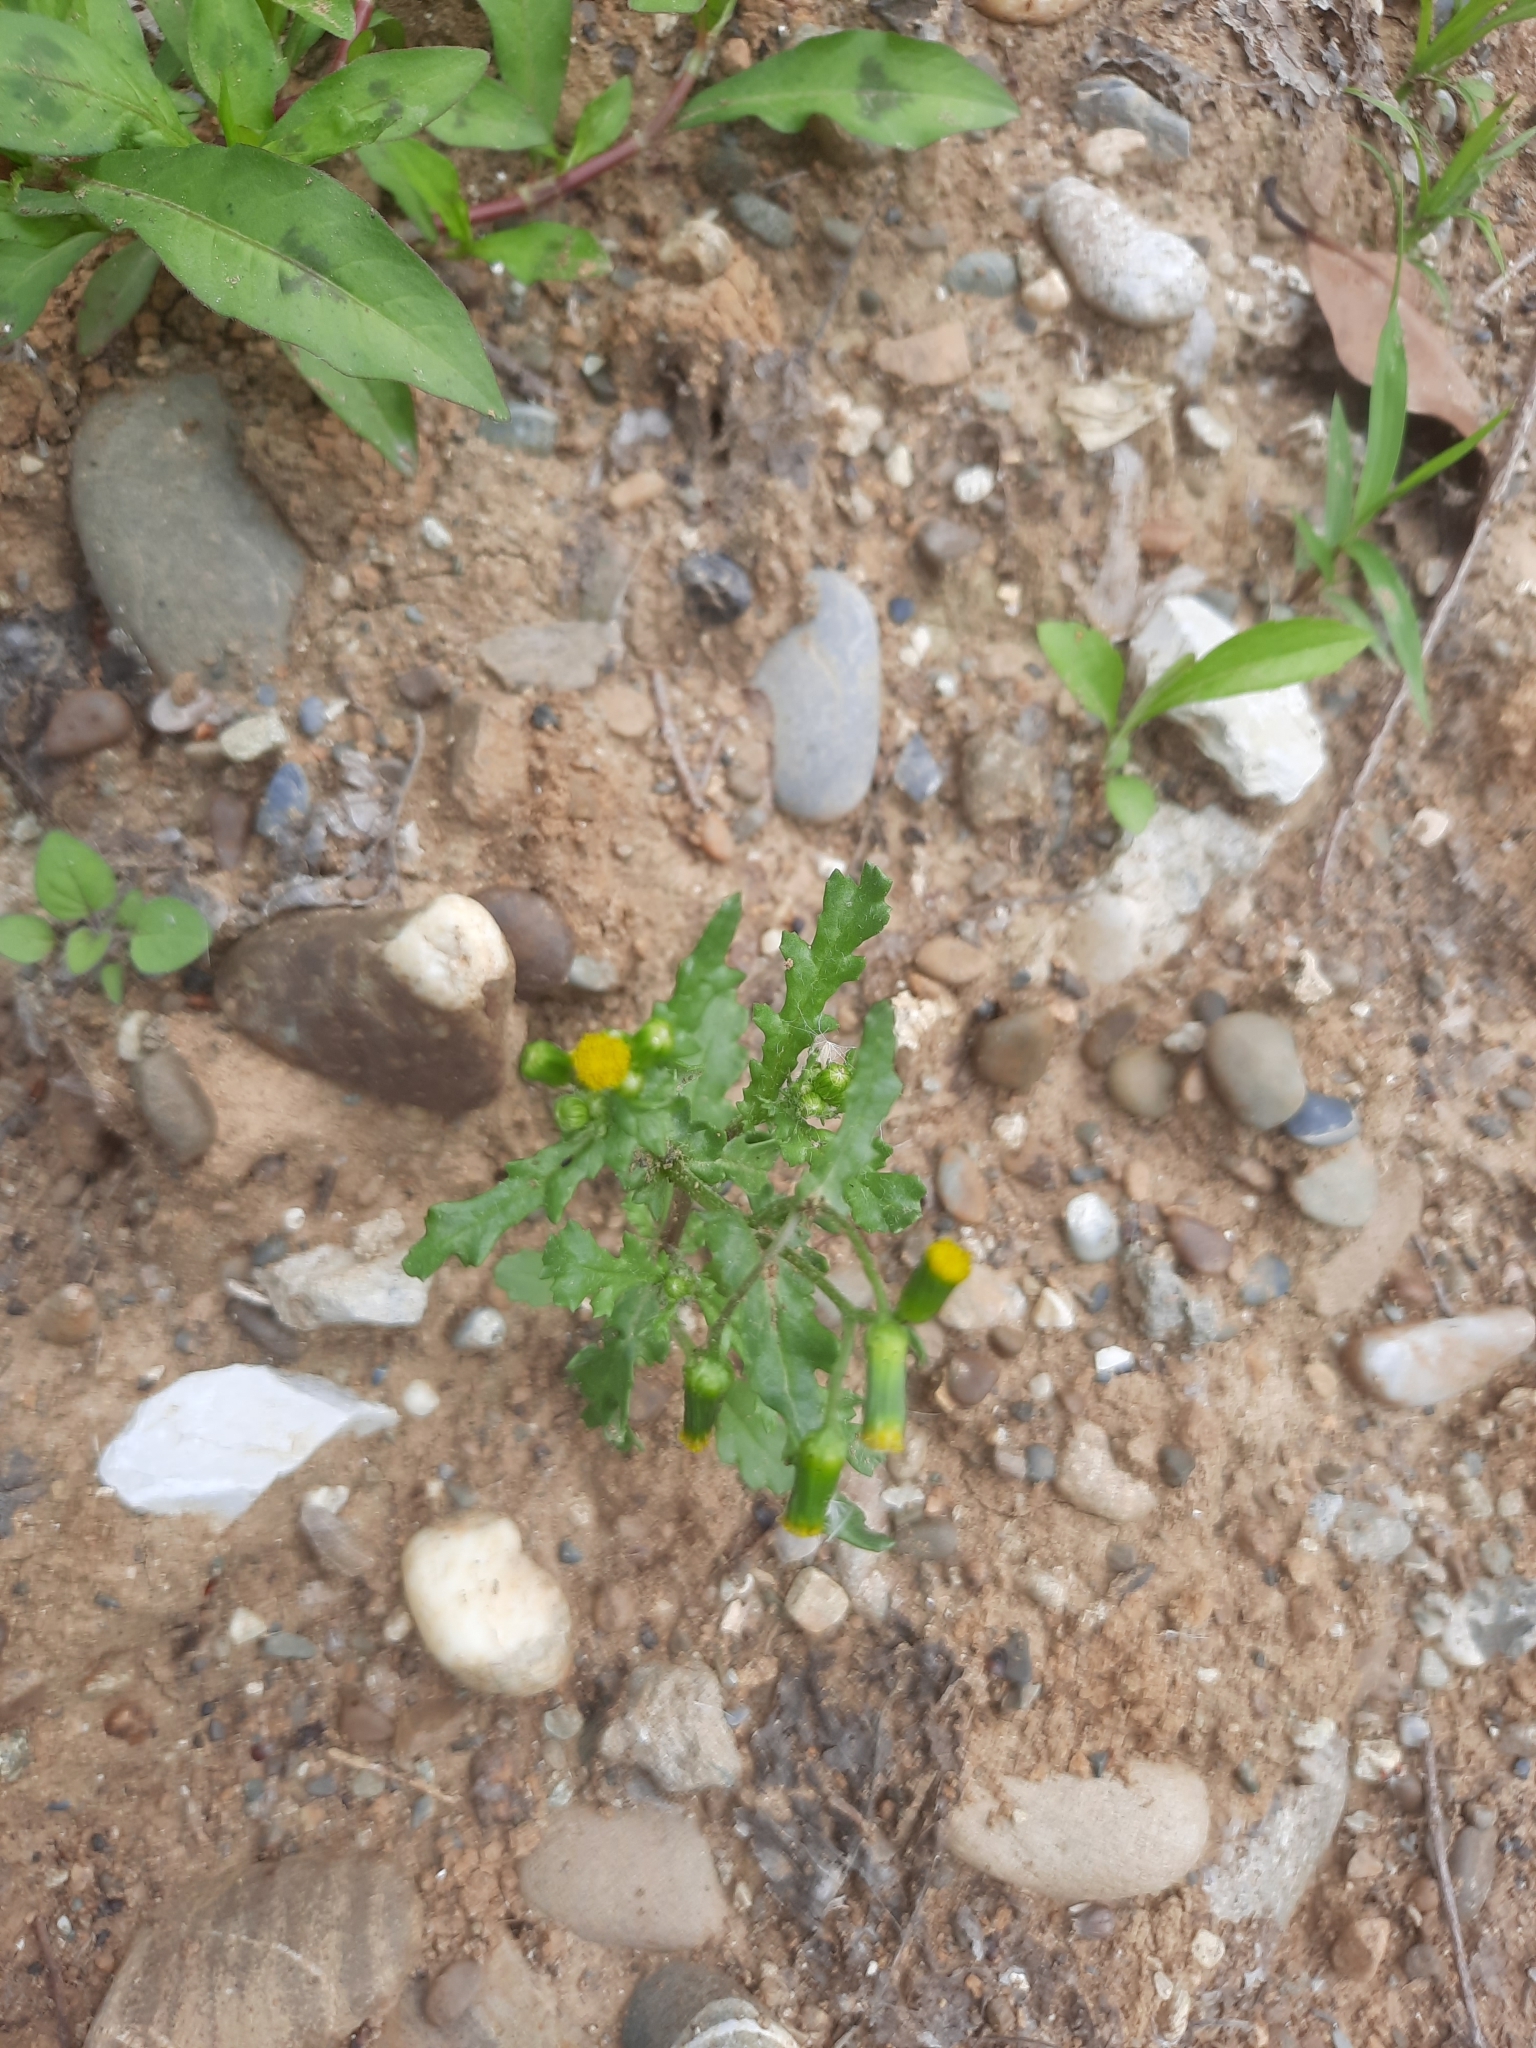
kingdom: Plantae
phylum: Tracheophyta
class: Magnoliopsida
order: Asterales
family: Asteraceae
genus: Senecio
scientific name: Senecio vulgaris
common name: Old-man-in-the-spring
